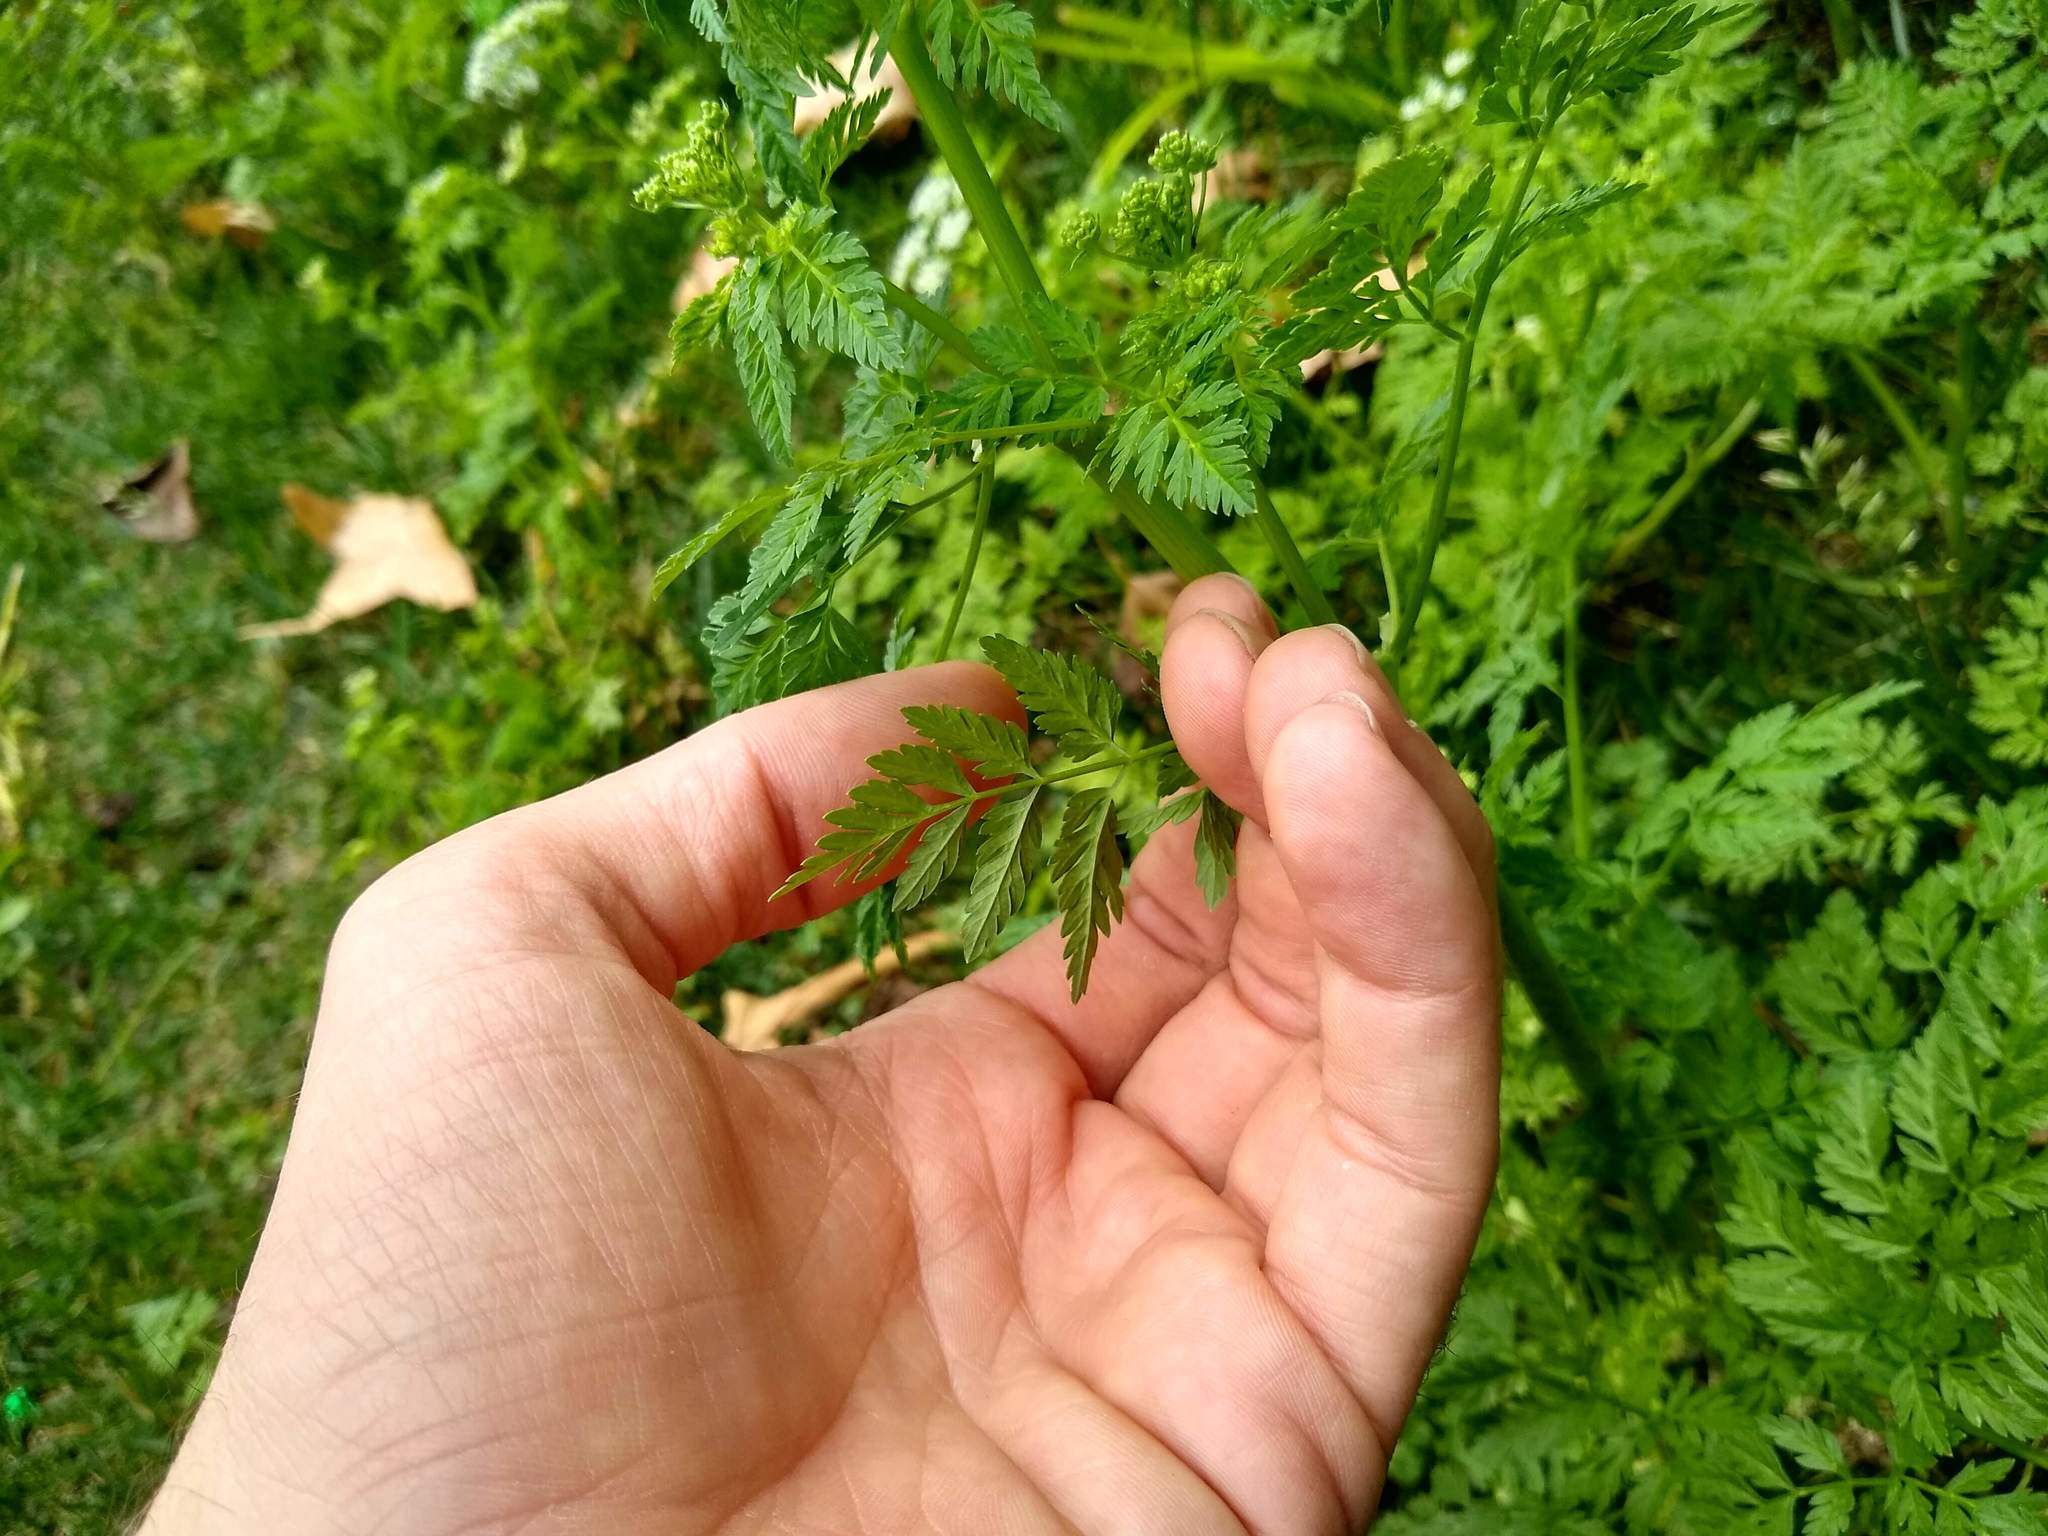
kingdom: Plantae
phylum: Tracheophyta
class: Magnoliopsida
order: Apiales
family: Apiaceae
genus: Conium
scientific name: Conium maculatum
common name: Hemlock
